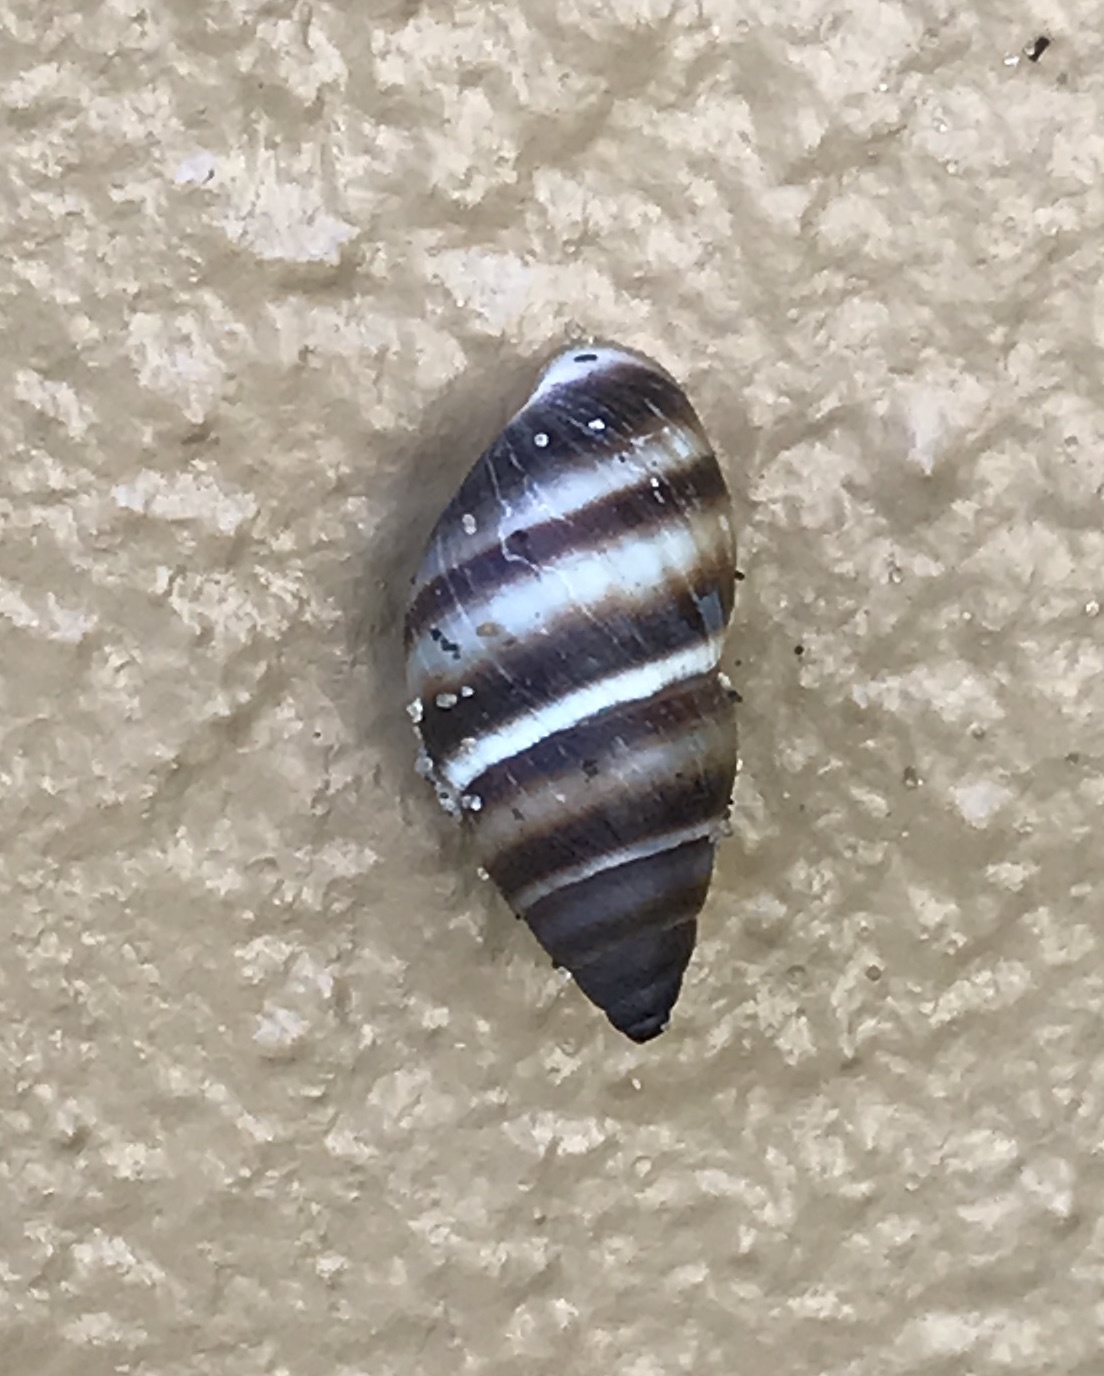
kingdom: Animalia
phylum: Mollusca
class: Gastropoda
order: Stylommatophora
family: Bulimulidae
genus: Bulimulus
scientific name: Bulimulus guadalupensis
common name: West indian bulimulus
